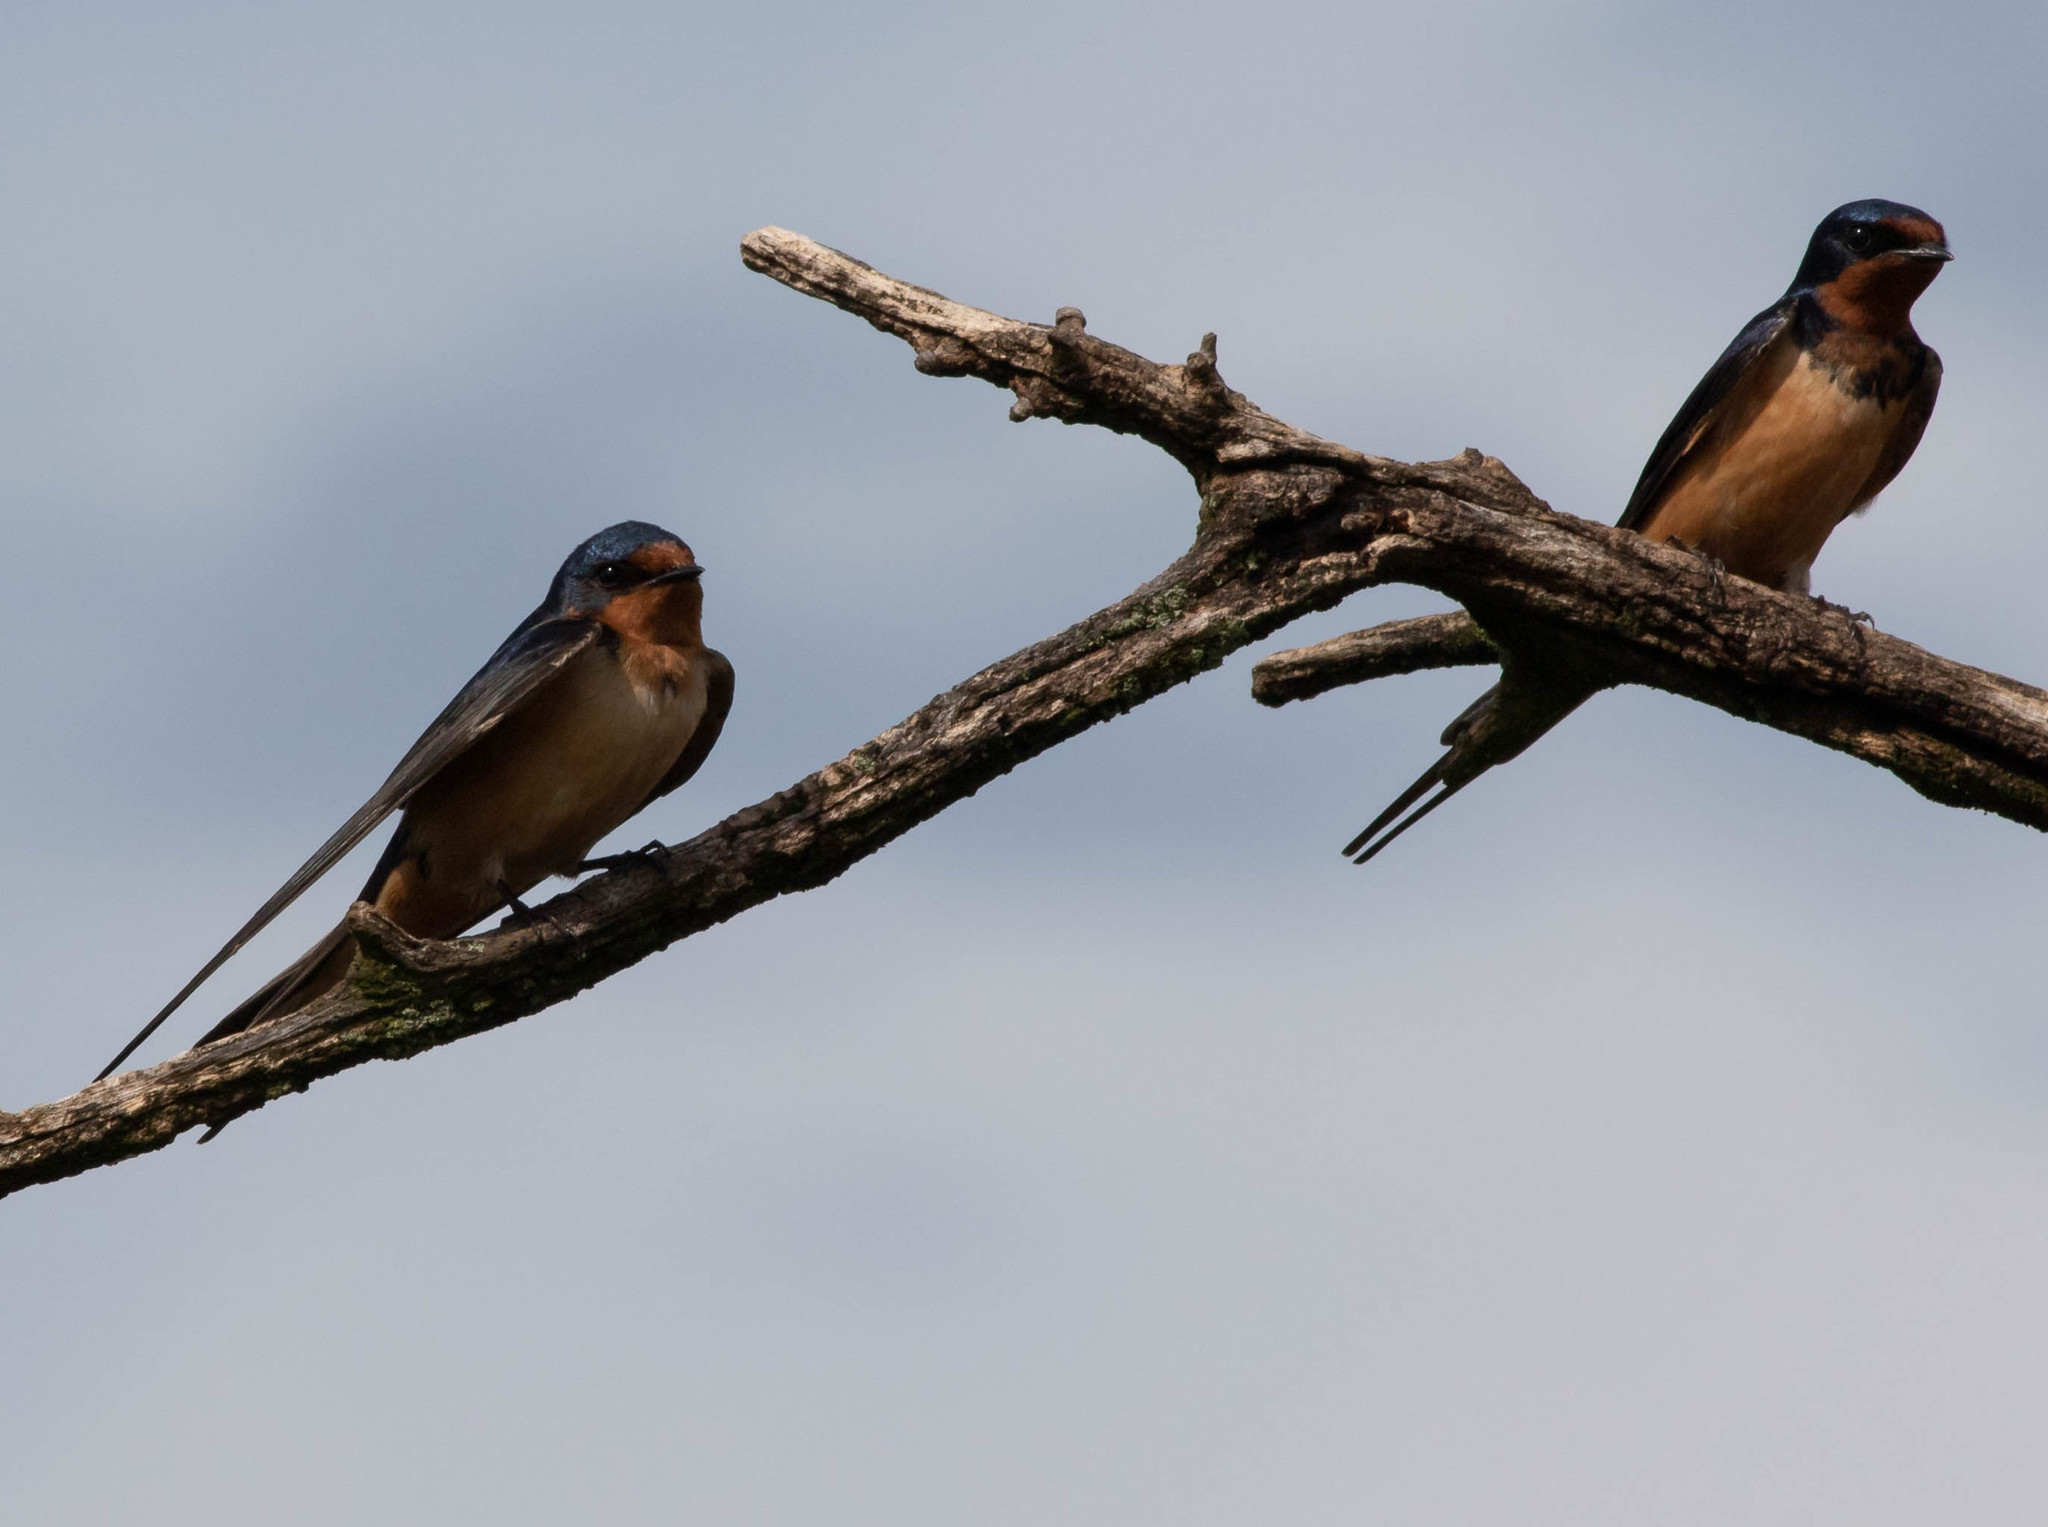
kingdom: Animalia
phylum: Chordata
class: Aves
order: Passeriformes
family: Hirundinidae
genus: Hirundo
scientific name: Hirundo rustica
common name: Barn swallow
